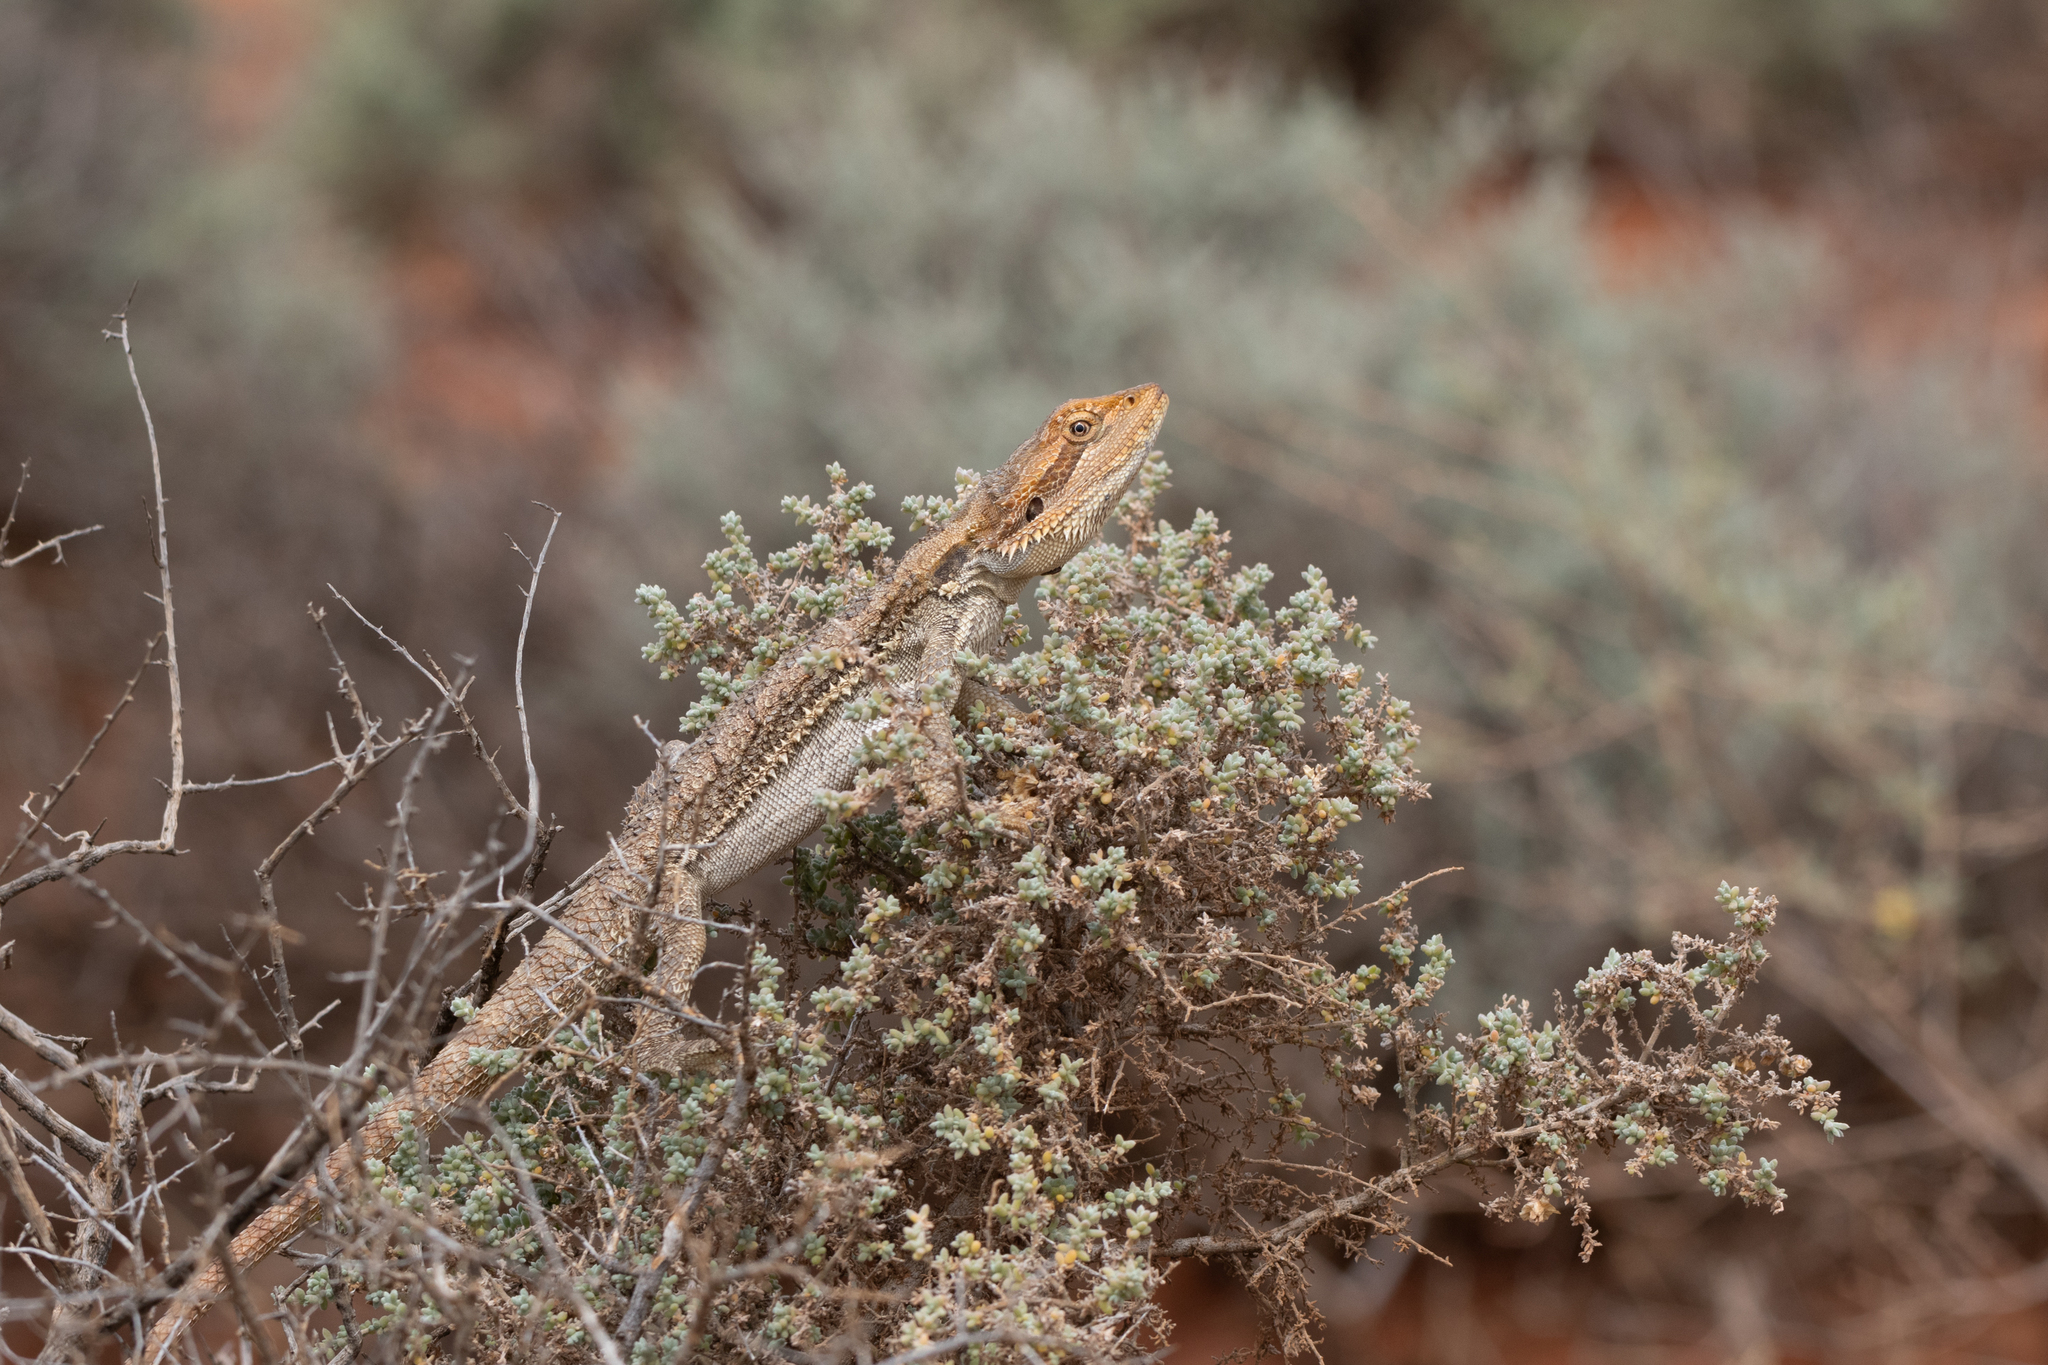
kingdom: Animalia
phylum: Chordata
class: Squamata
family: Agamidae
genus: Pogona
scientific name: Pogona vitticeps
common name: Central bearded dragon
